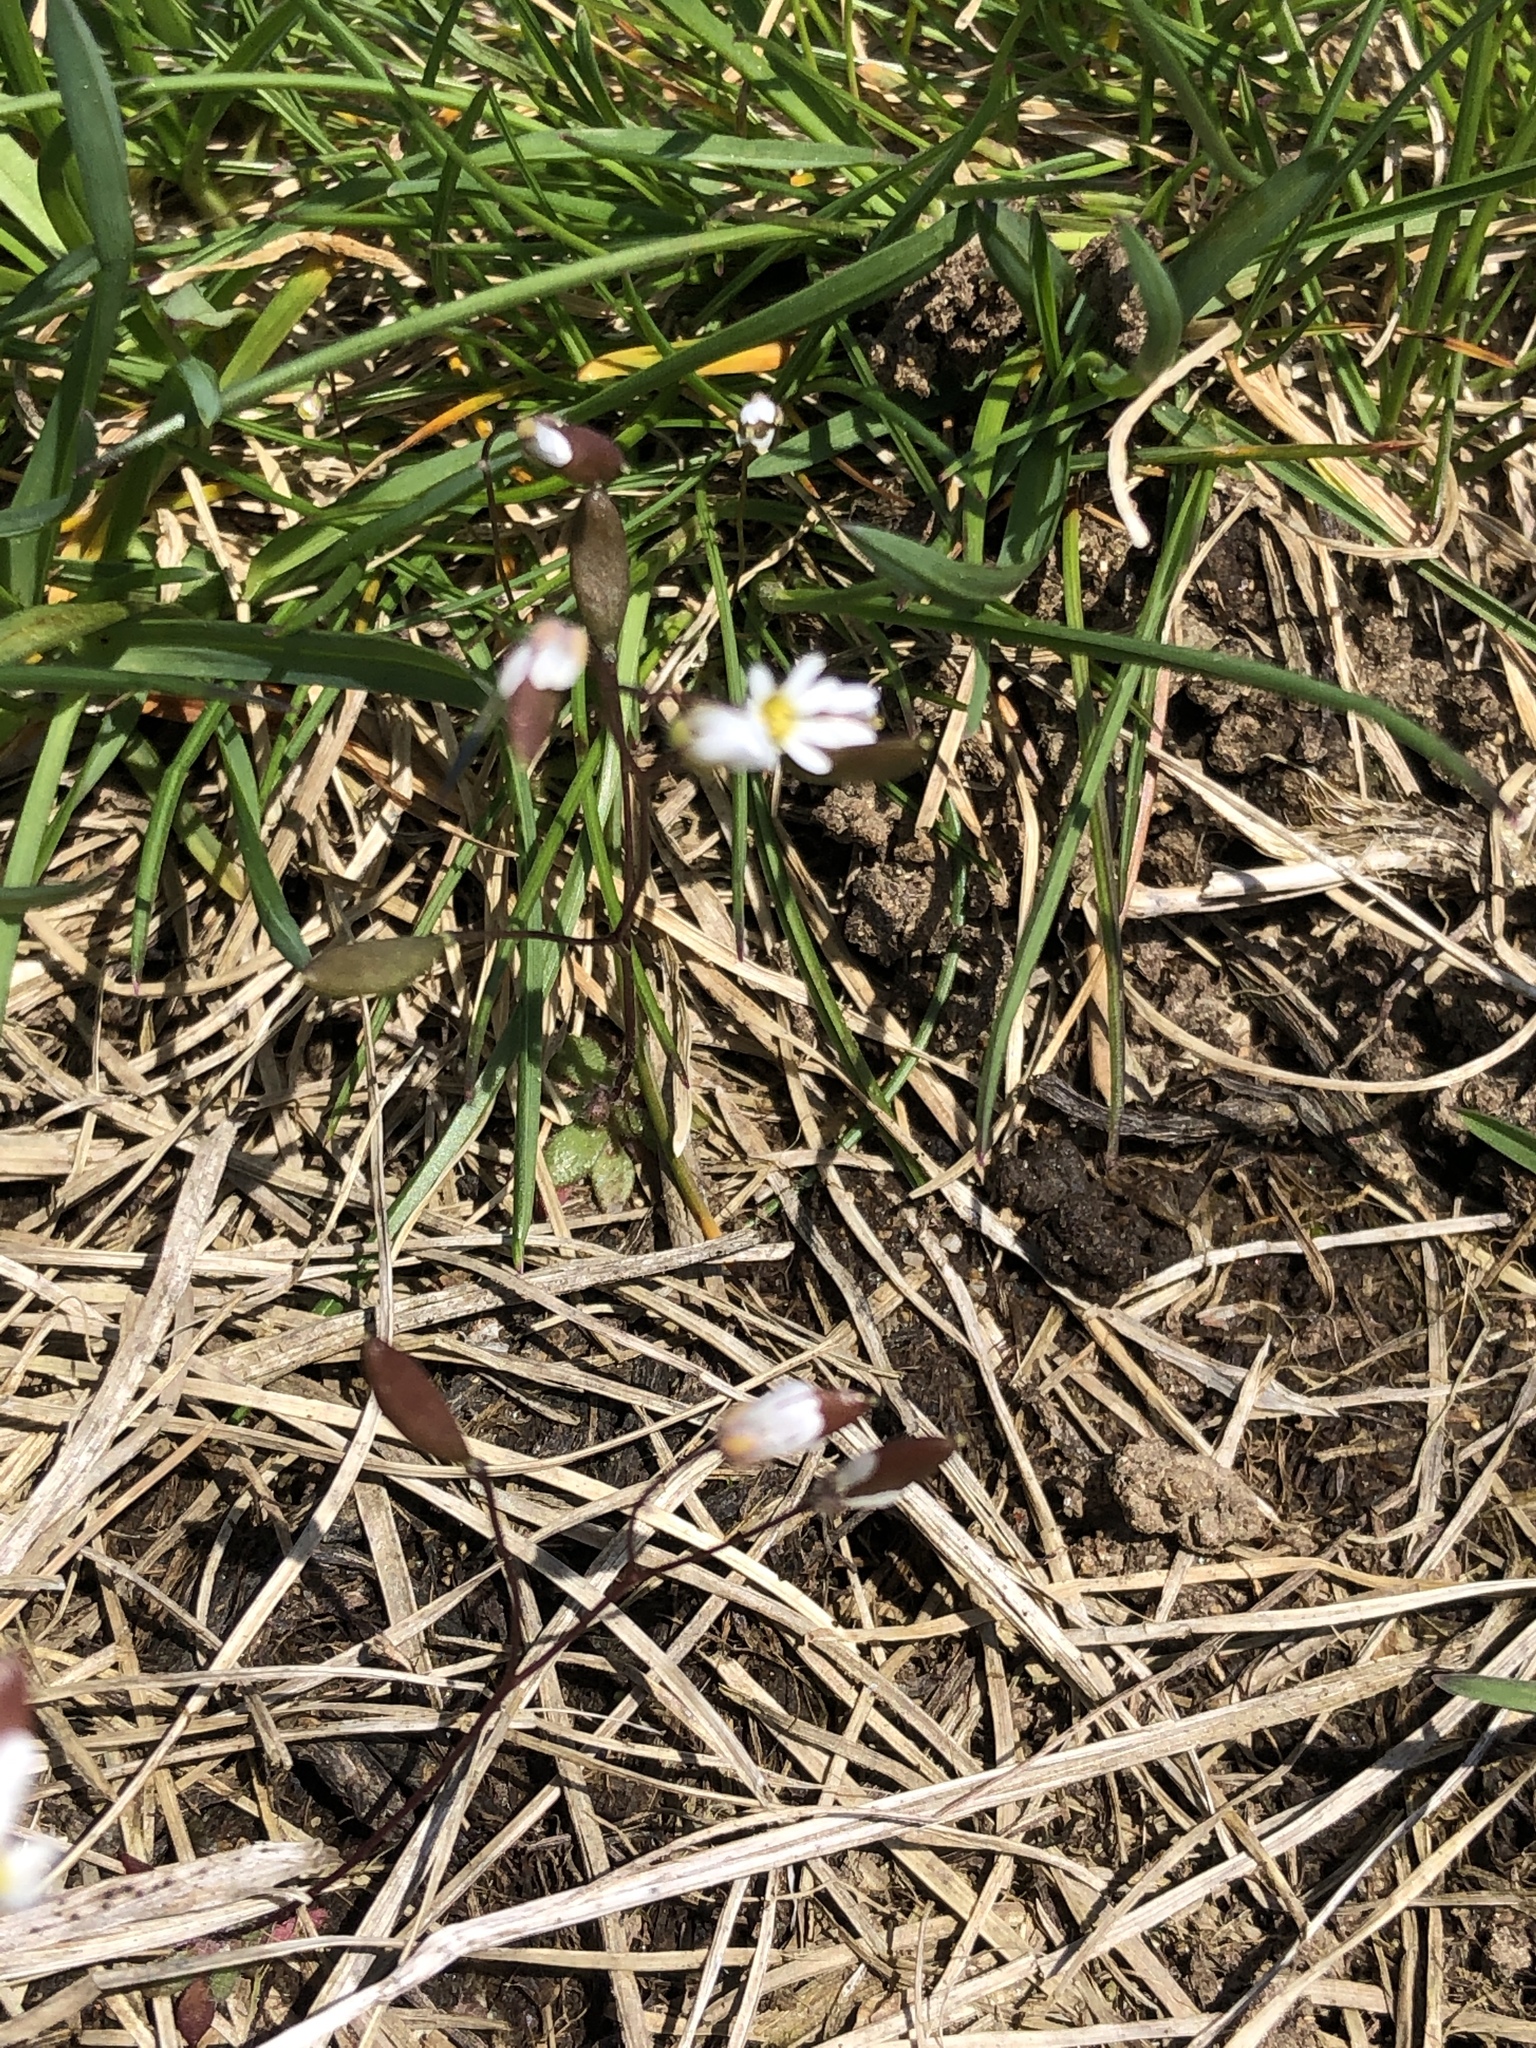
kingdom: Plantae
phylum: Tracheophyta
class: Magnoliopsida
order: Brassicales
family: Brassicaceae
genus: Draba
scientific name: Draba verna
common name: Spring draba
